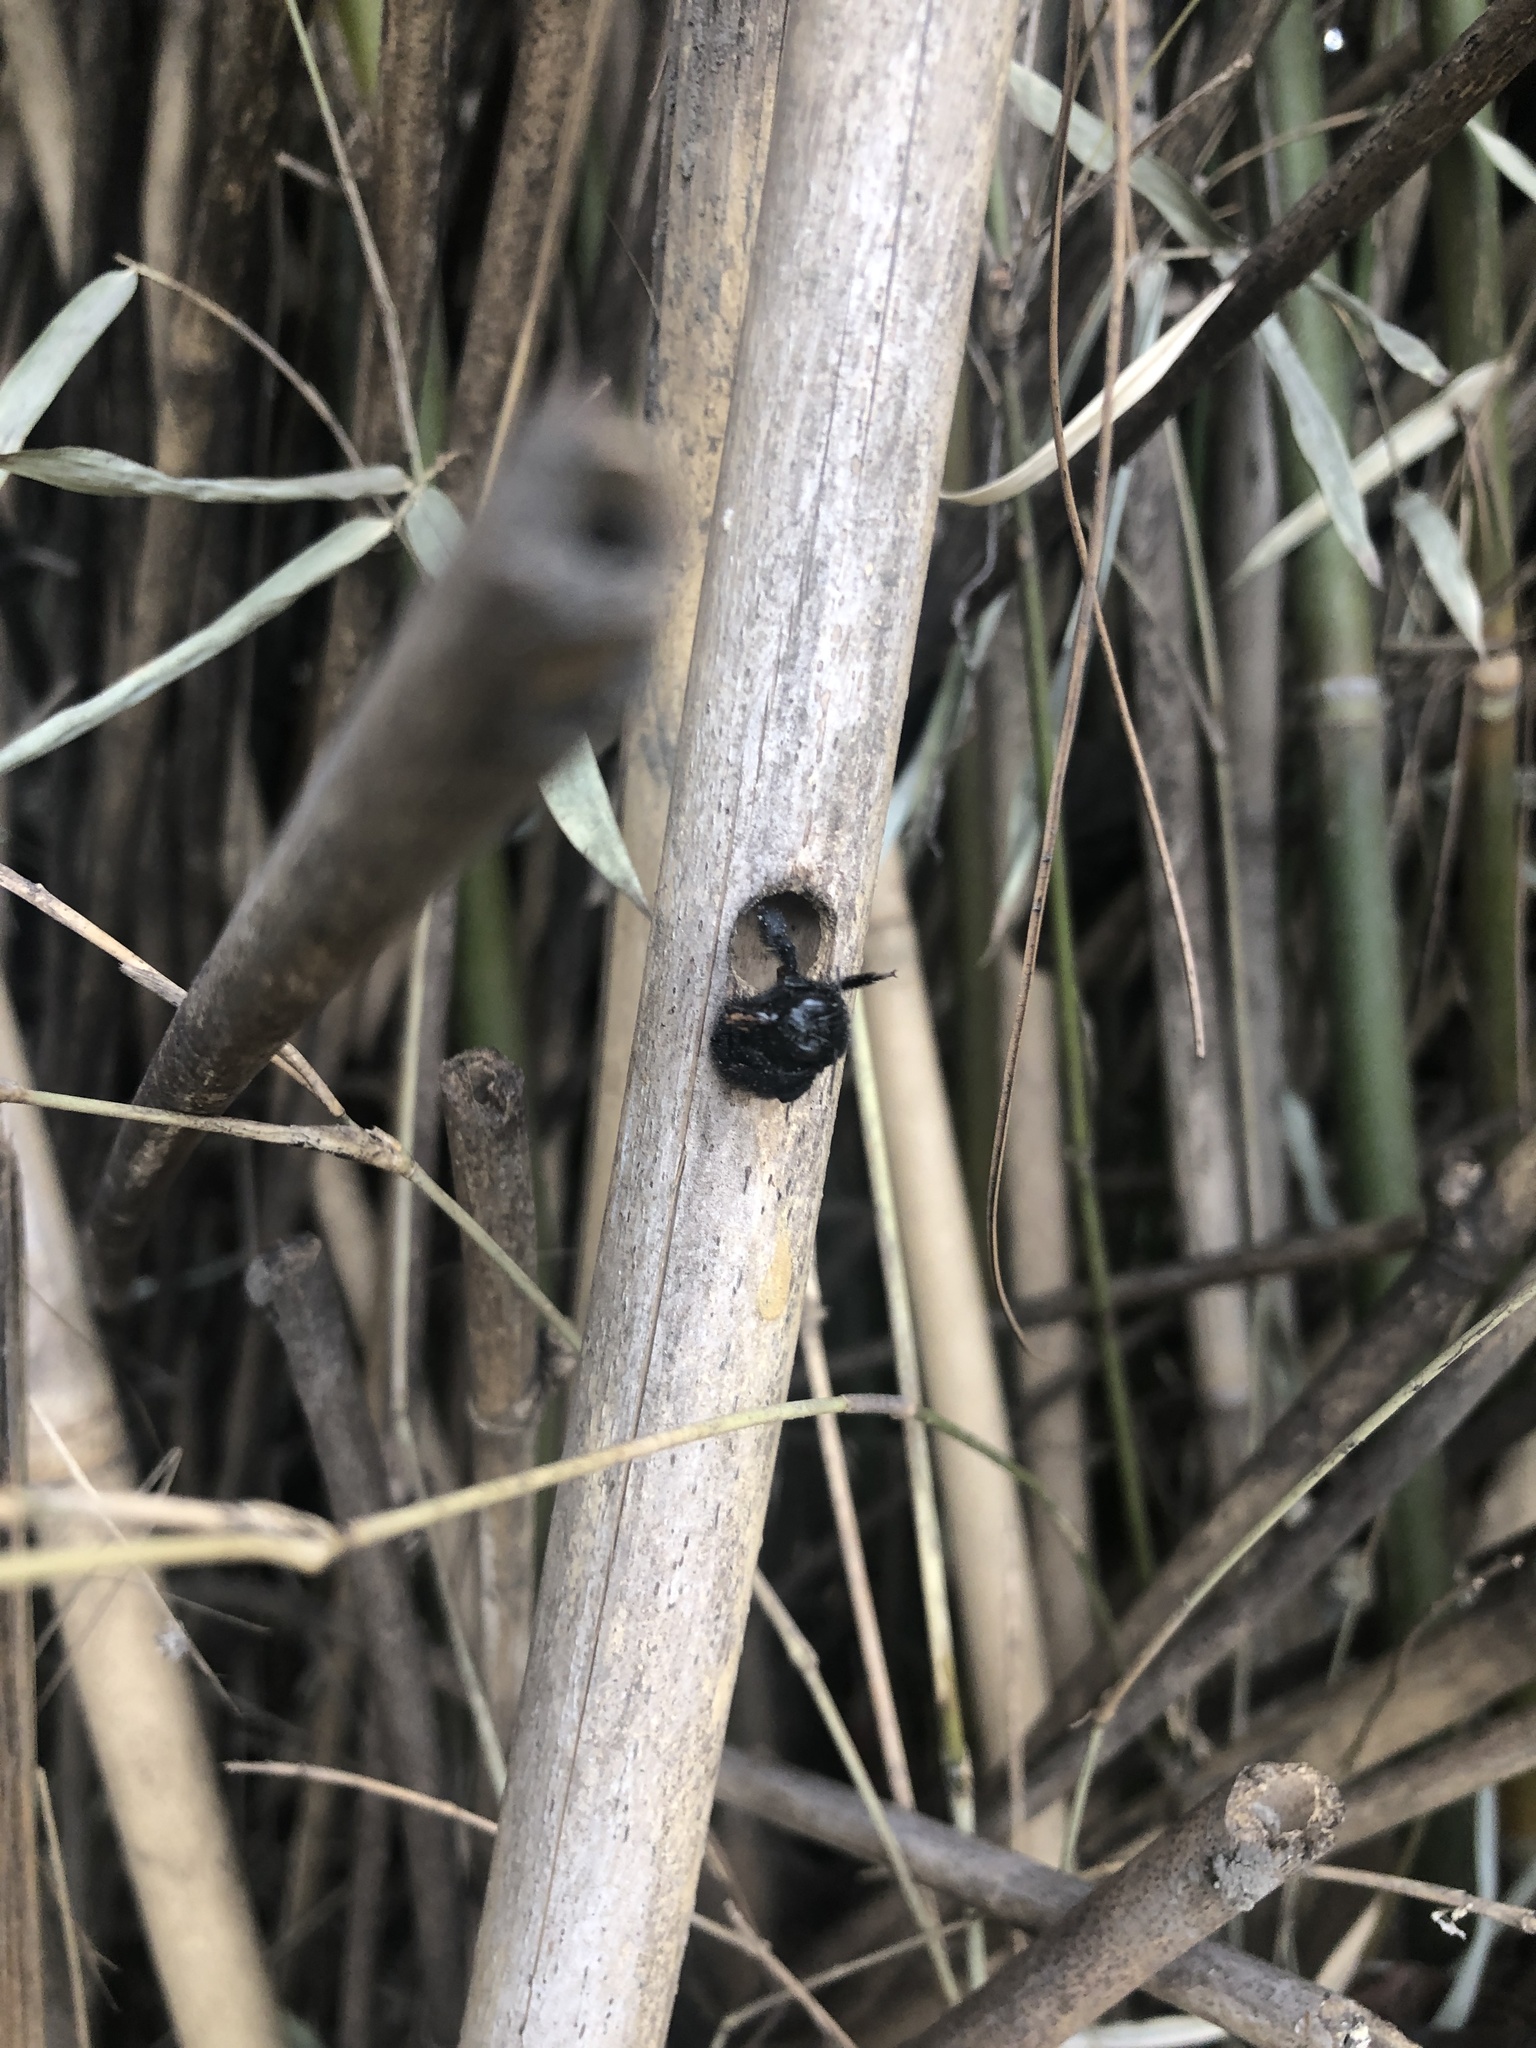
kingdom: Animalia
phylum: Arthropoda
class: Insecta
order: Hymenoptera
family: Apidae
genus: Xylocopa
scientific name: Xylocopa strandi
